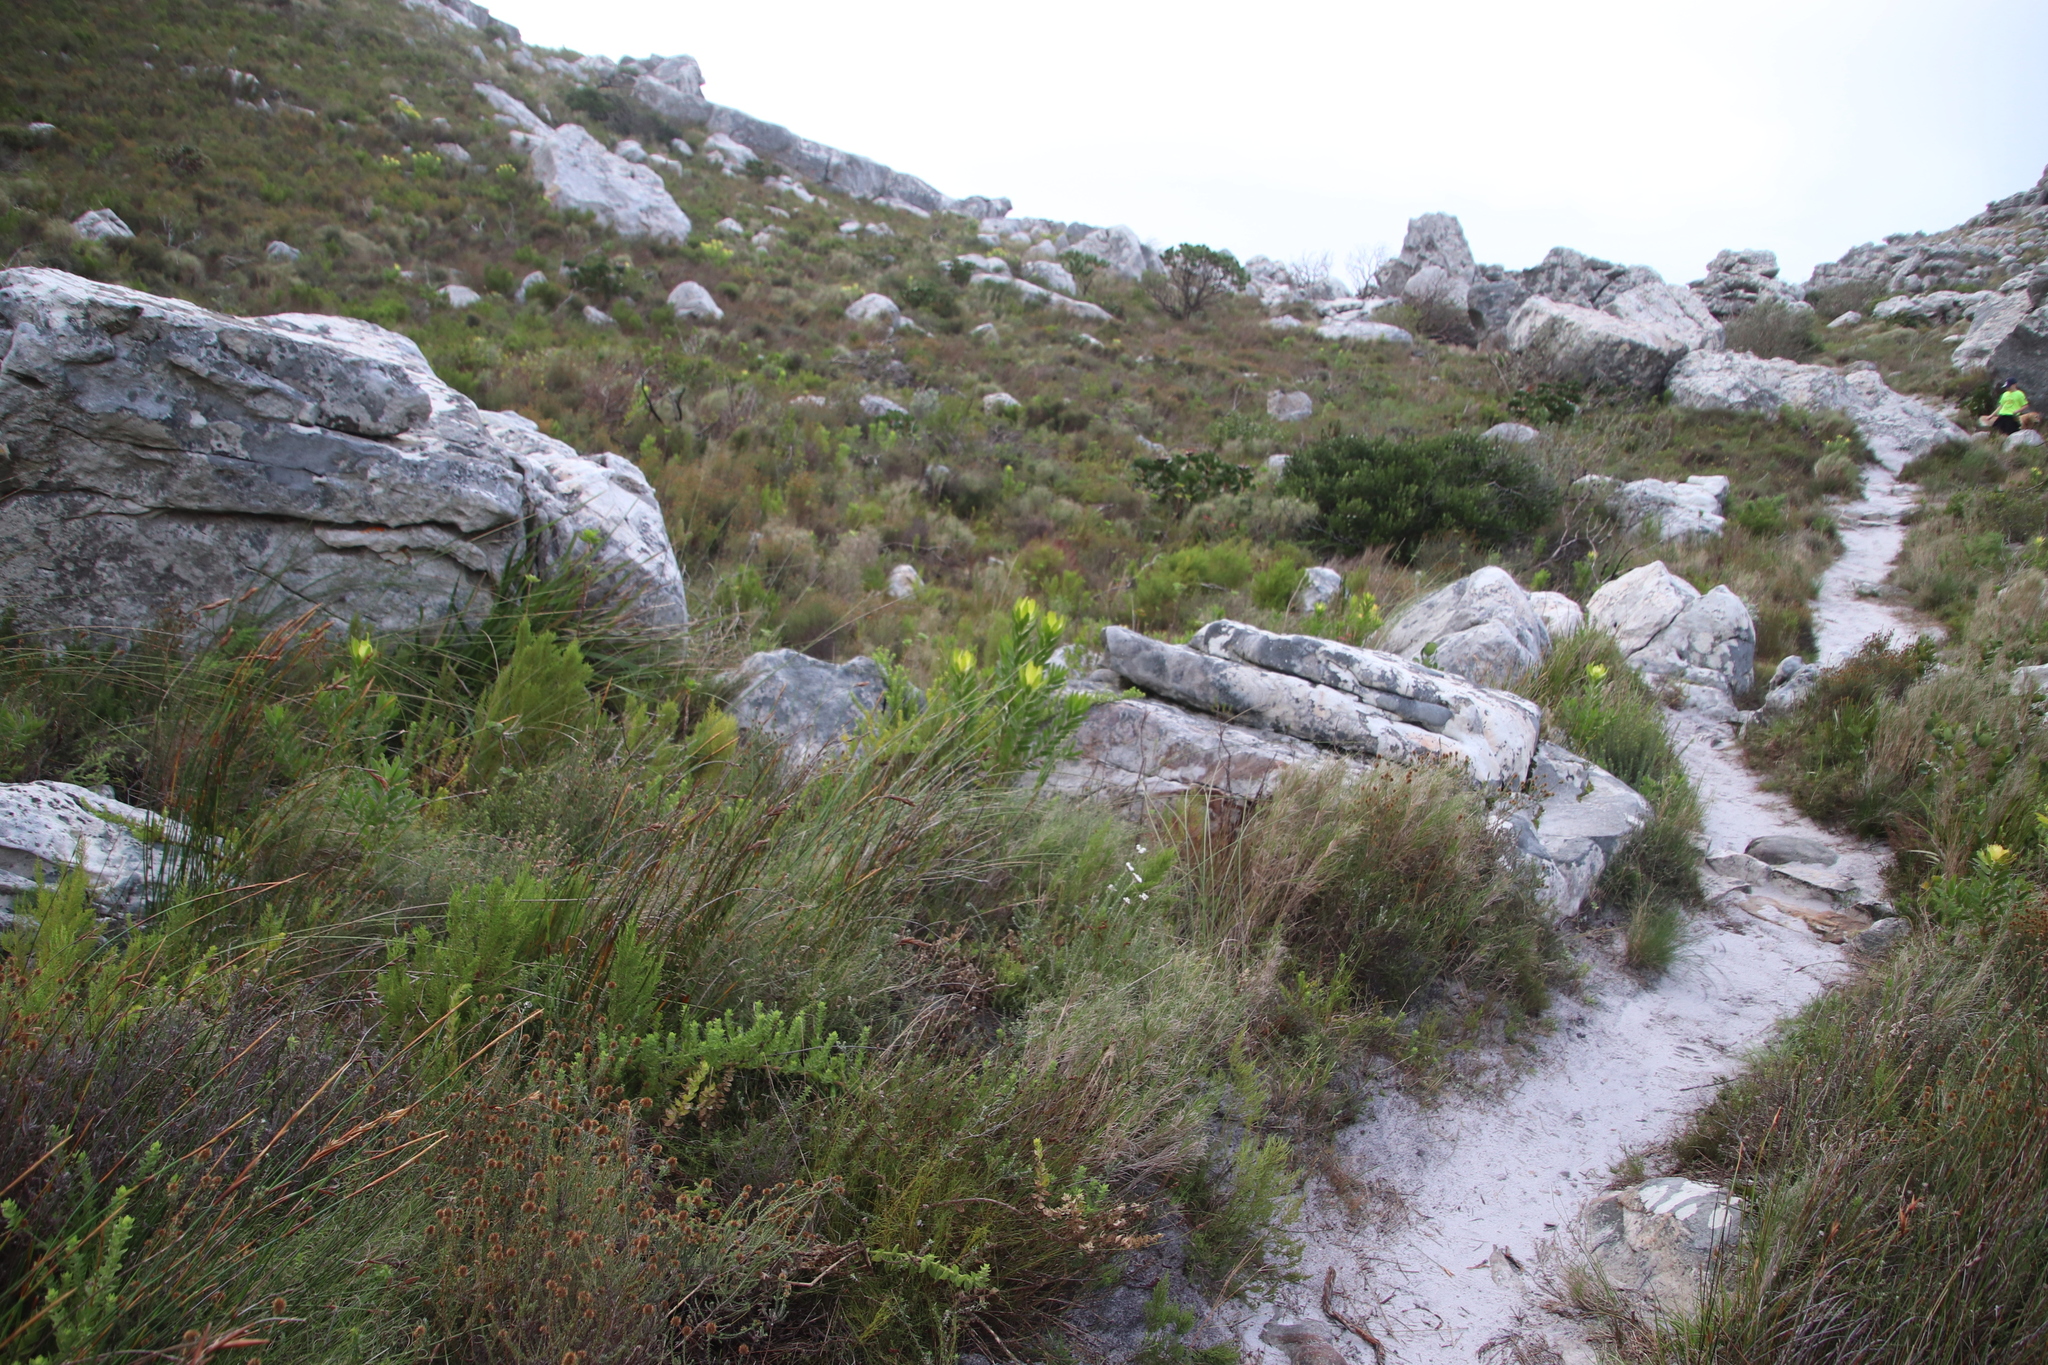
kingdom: Plantae
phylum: Tracheophyta
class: Magnoliopsida
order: Proteales
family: Proteaceae
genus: Leucadendron
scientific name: Leucadendron laureolum
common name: Golden sunshinebush
